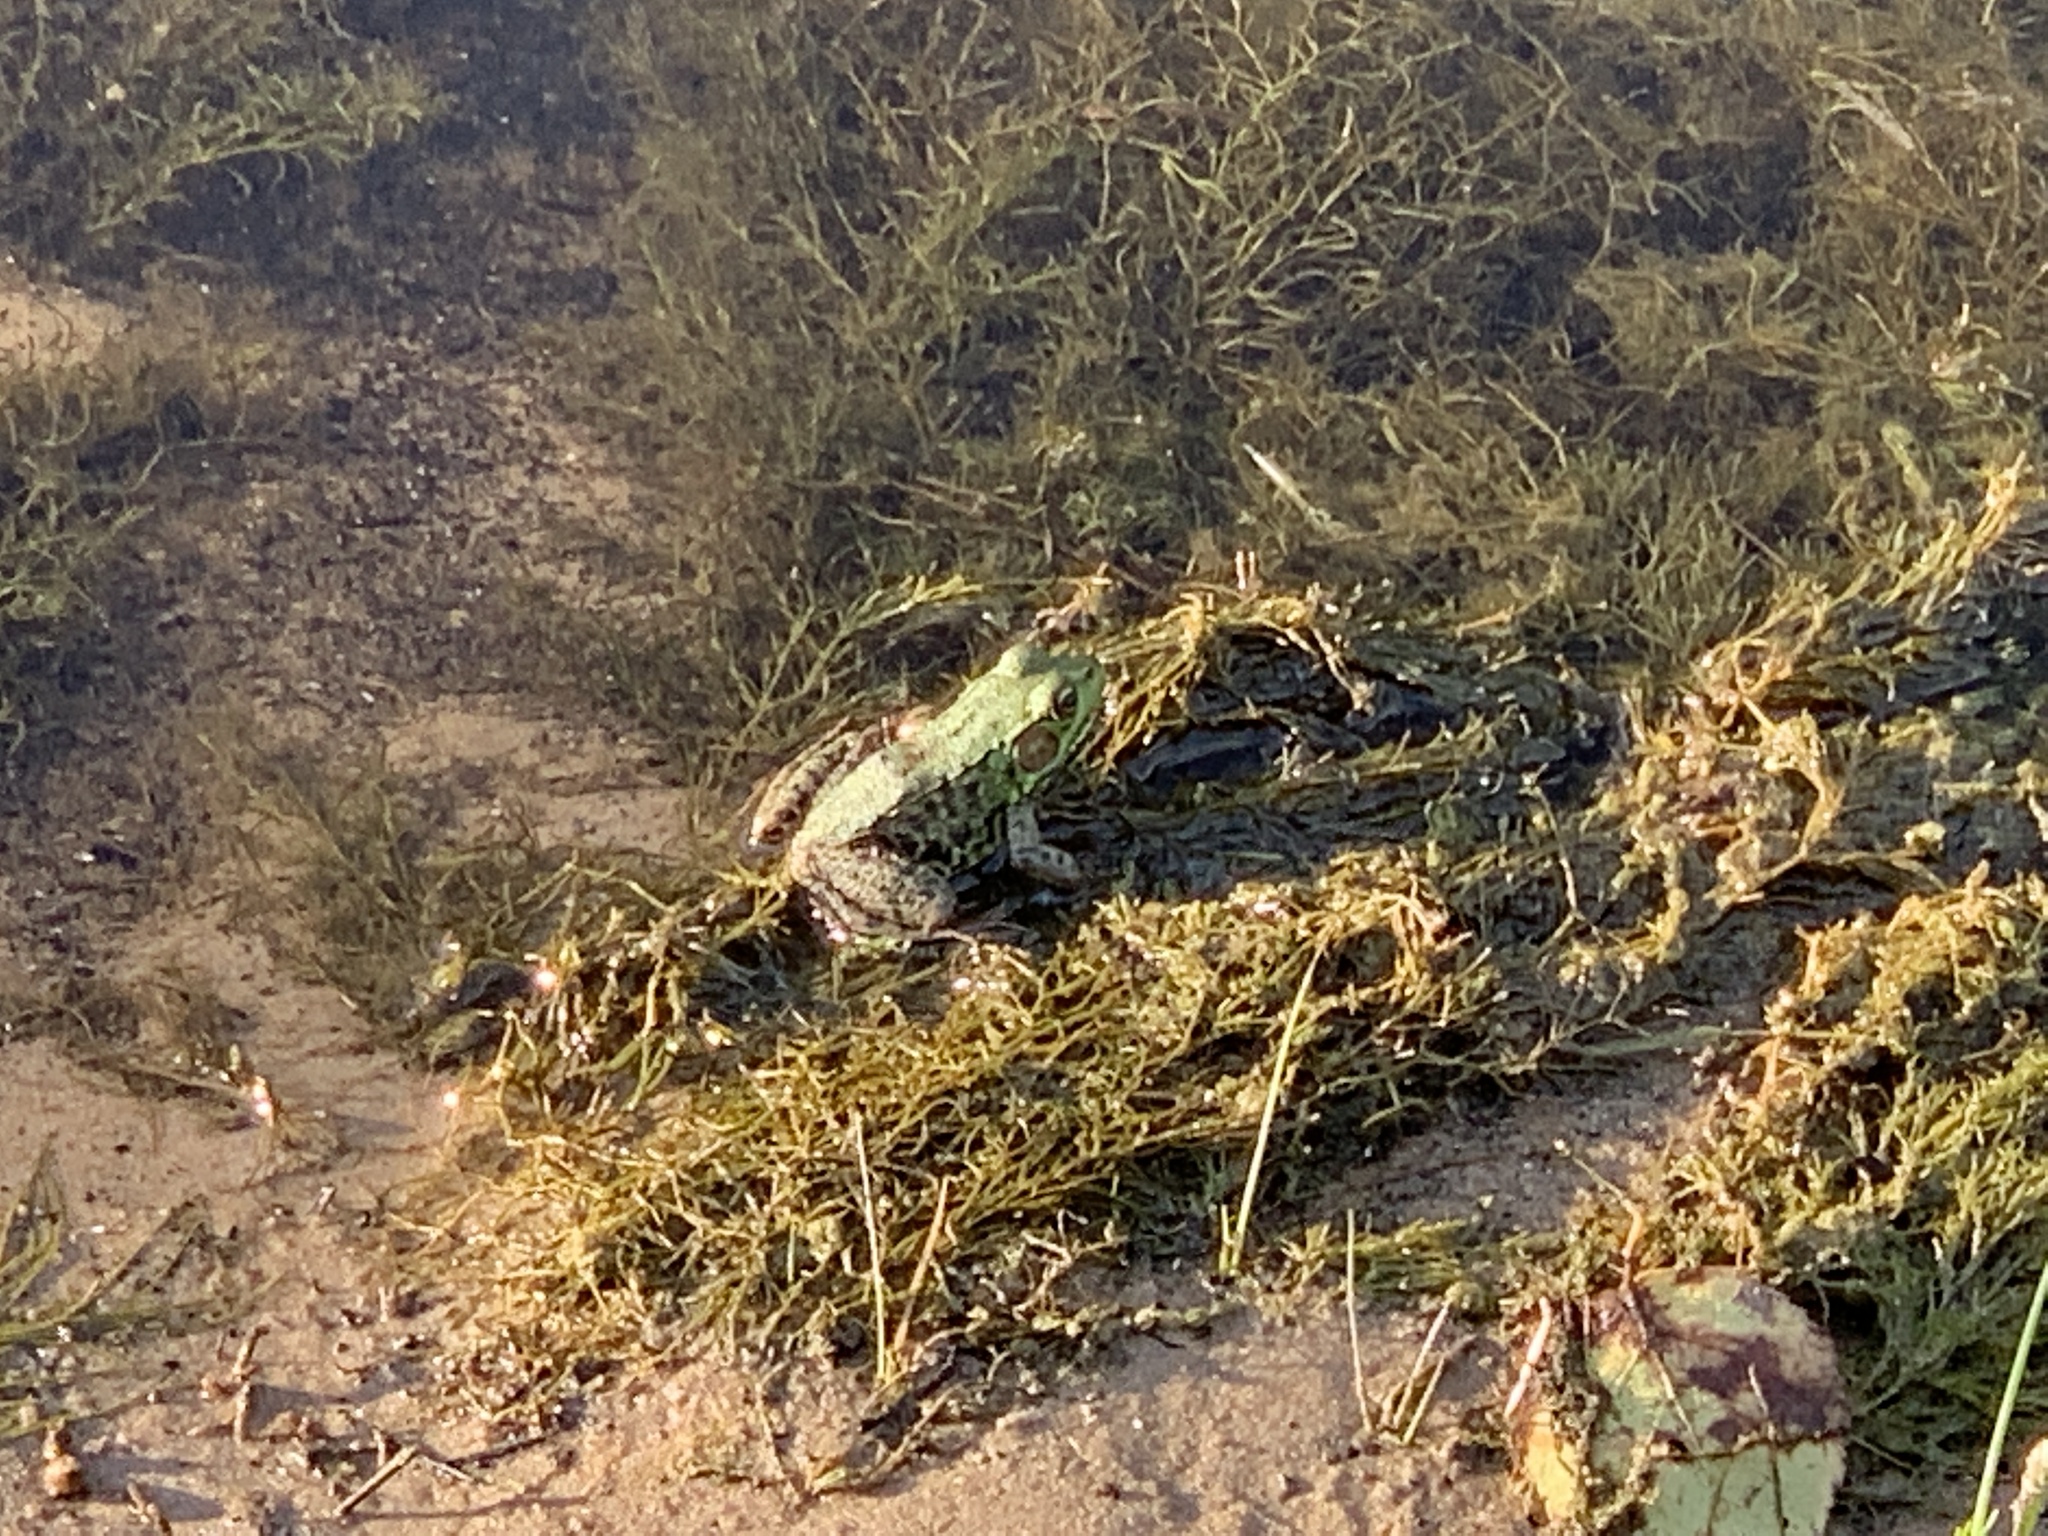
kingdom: Animalia
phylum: Chordata
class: Amphibia
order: Anura
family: Ranidae
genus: Lithobates
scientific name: Lithobates clamitans
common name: Green frog
